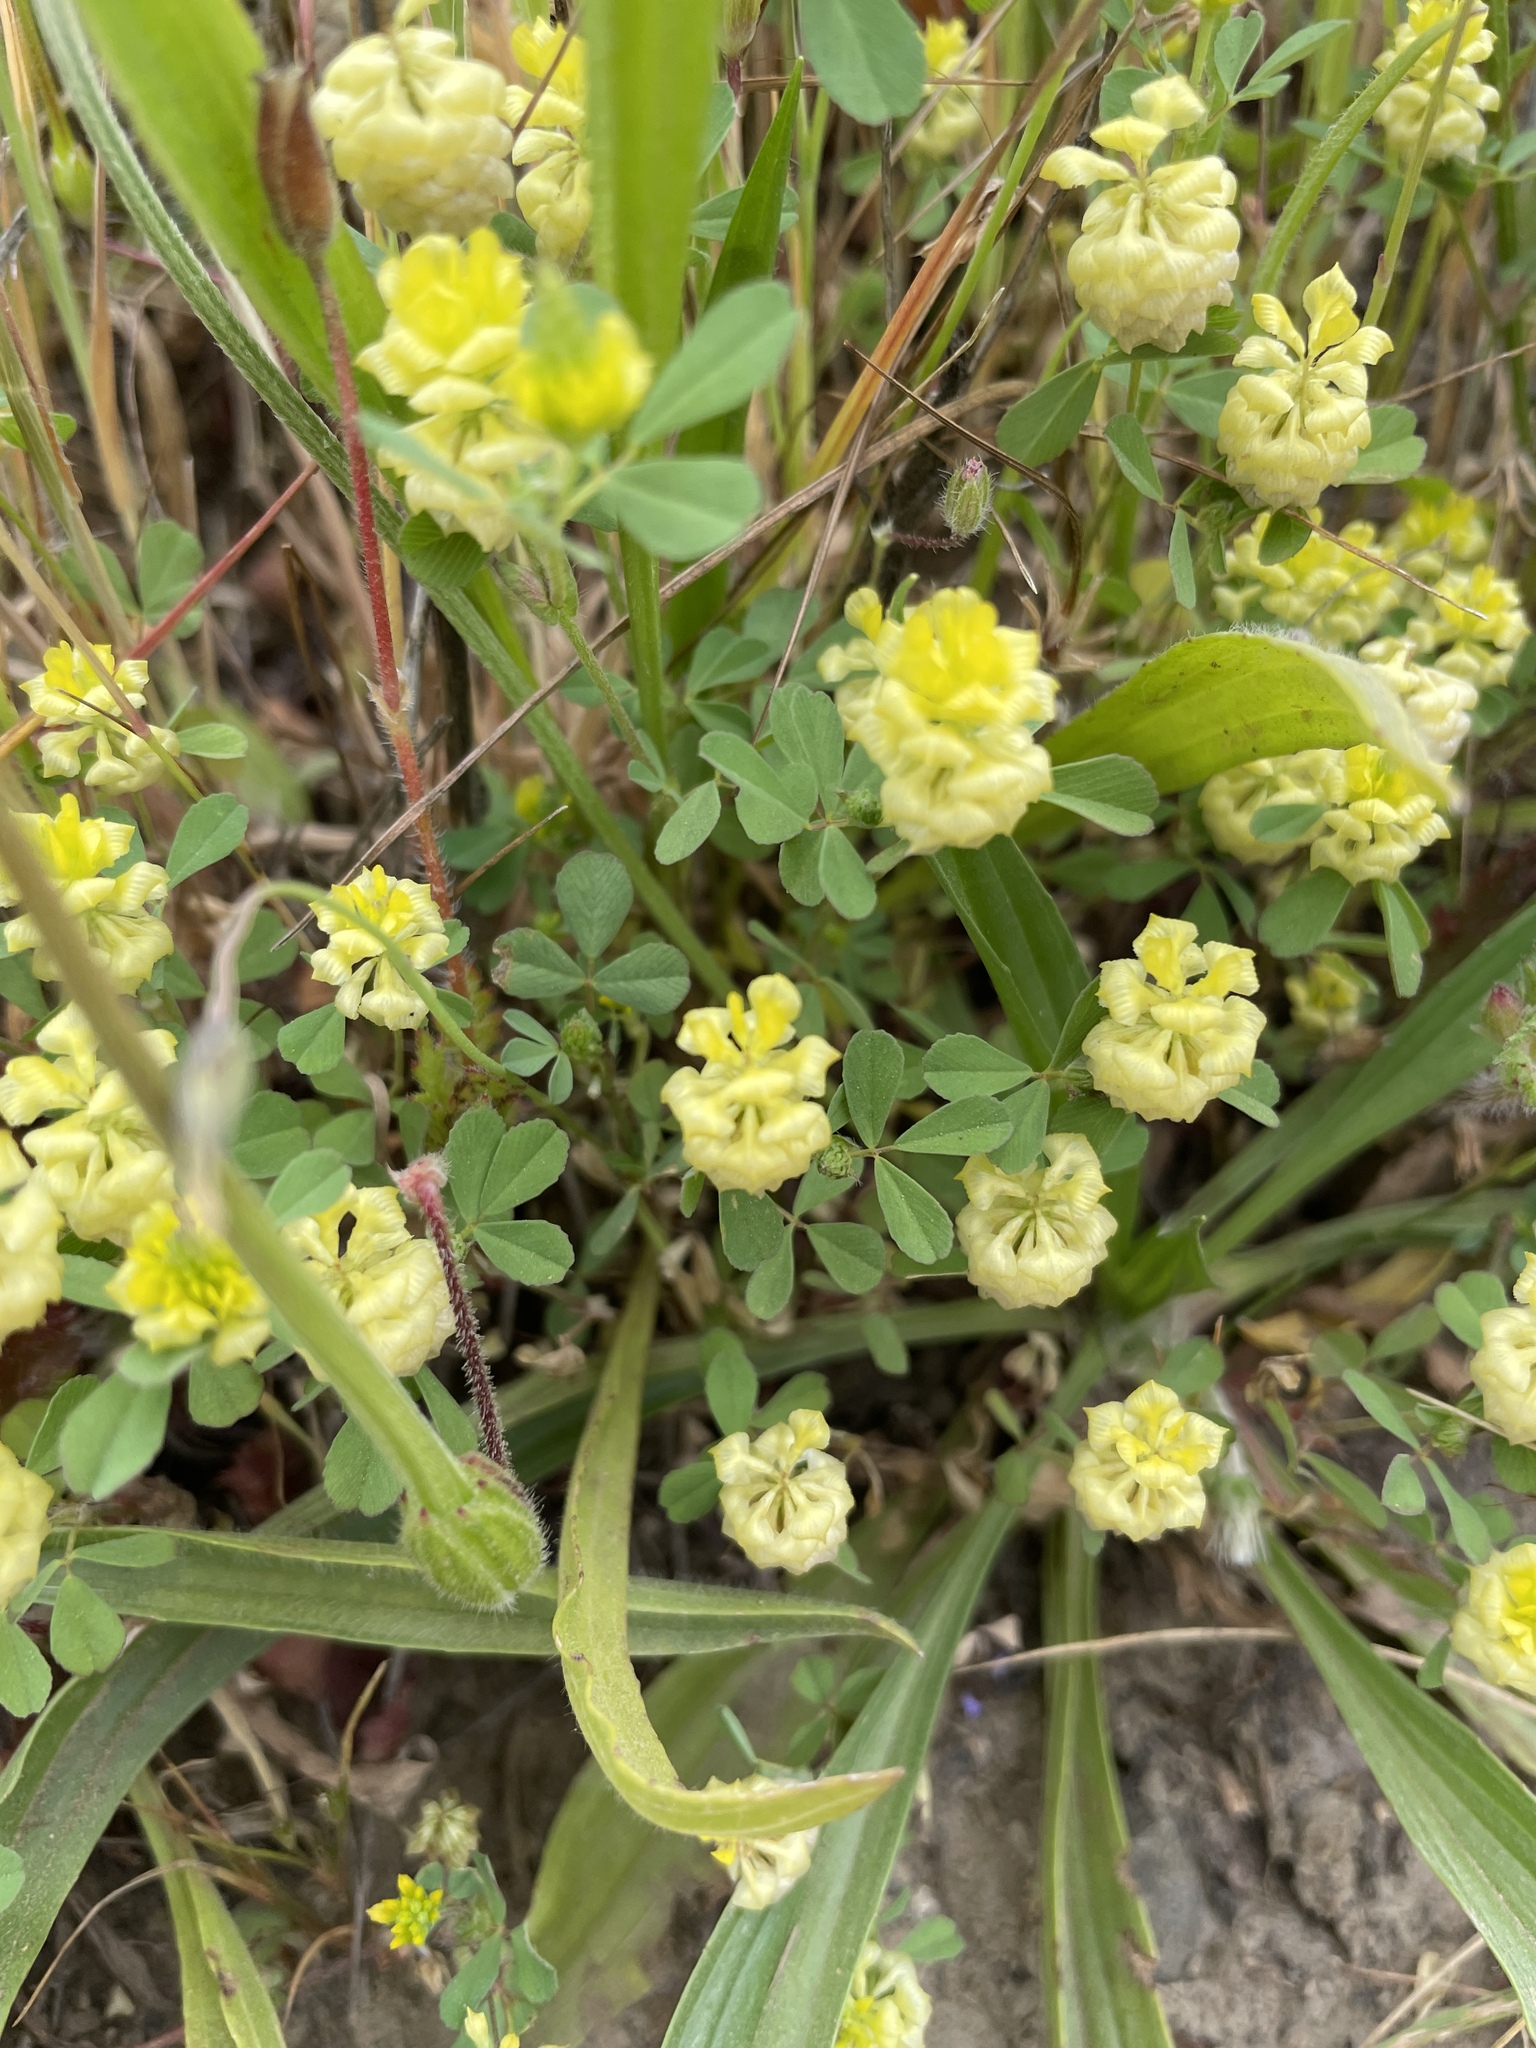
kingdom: Plantae
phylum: Tracheophyta
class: Magnoliopsida
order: Fabales
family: Fabaceae
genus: Trifolium
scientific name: Trifolium campestre
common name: Field clover
